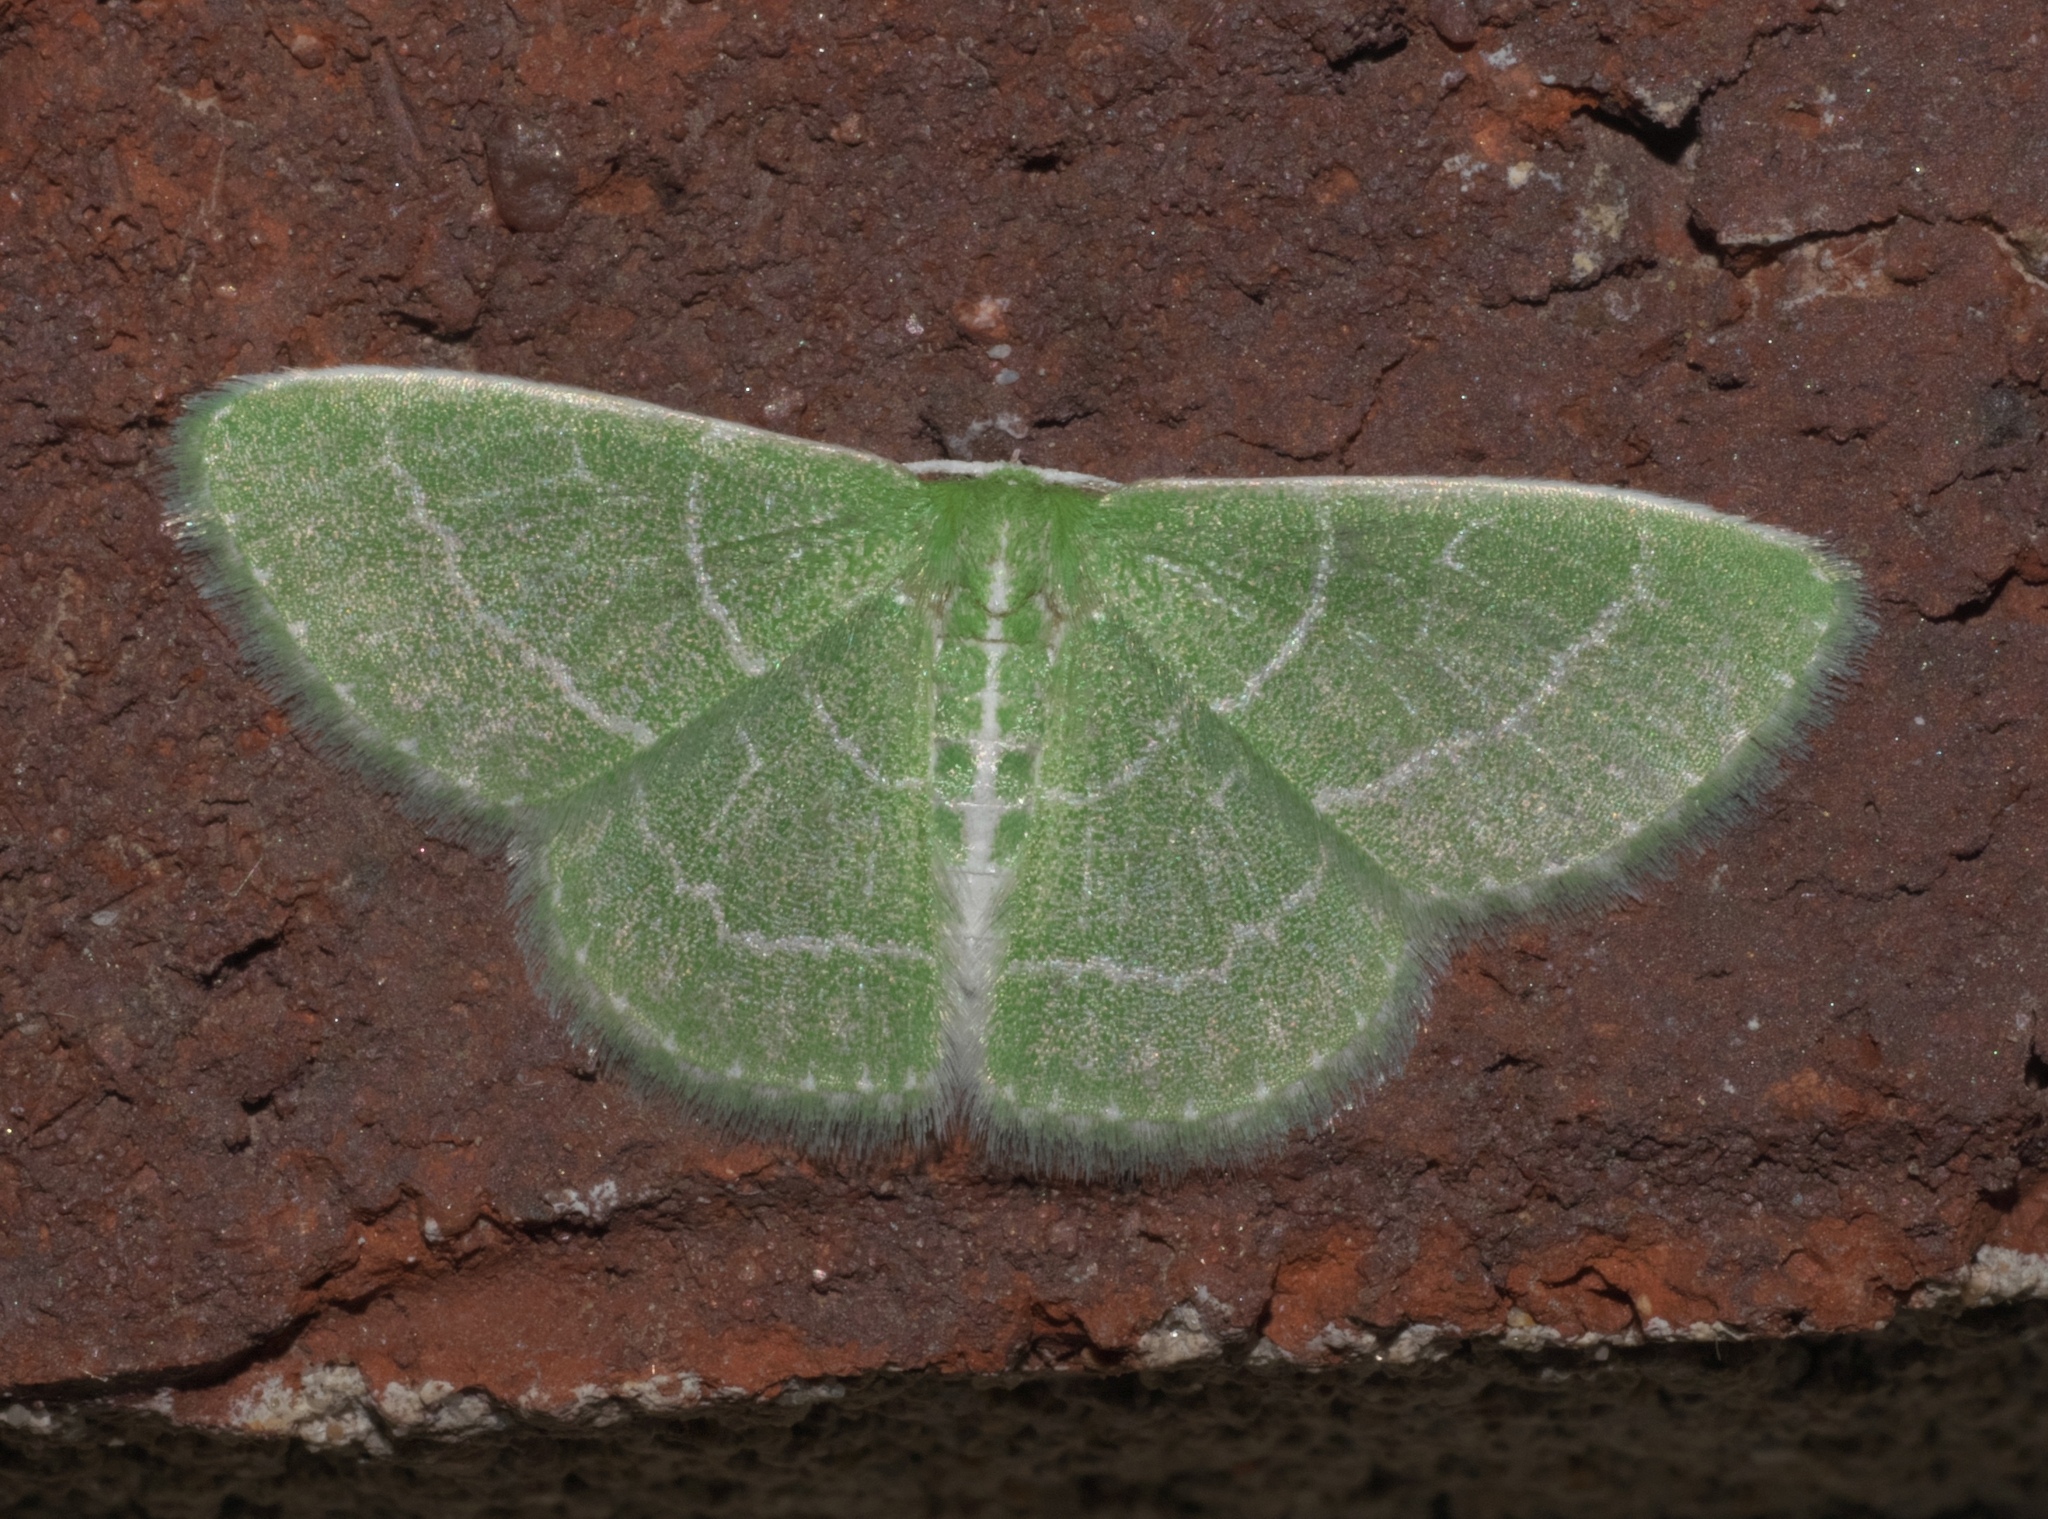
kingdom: Animalia
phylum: Arthropoda
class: Insecta
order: Lepidoptera
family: Geometridae
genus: Synchlora
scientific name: Synchlora aerata
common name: Wavy-lined emerald
